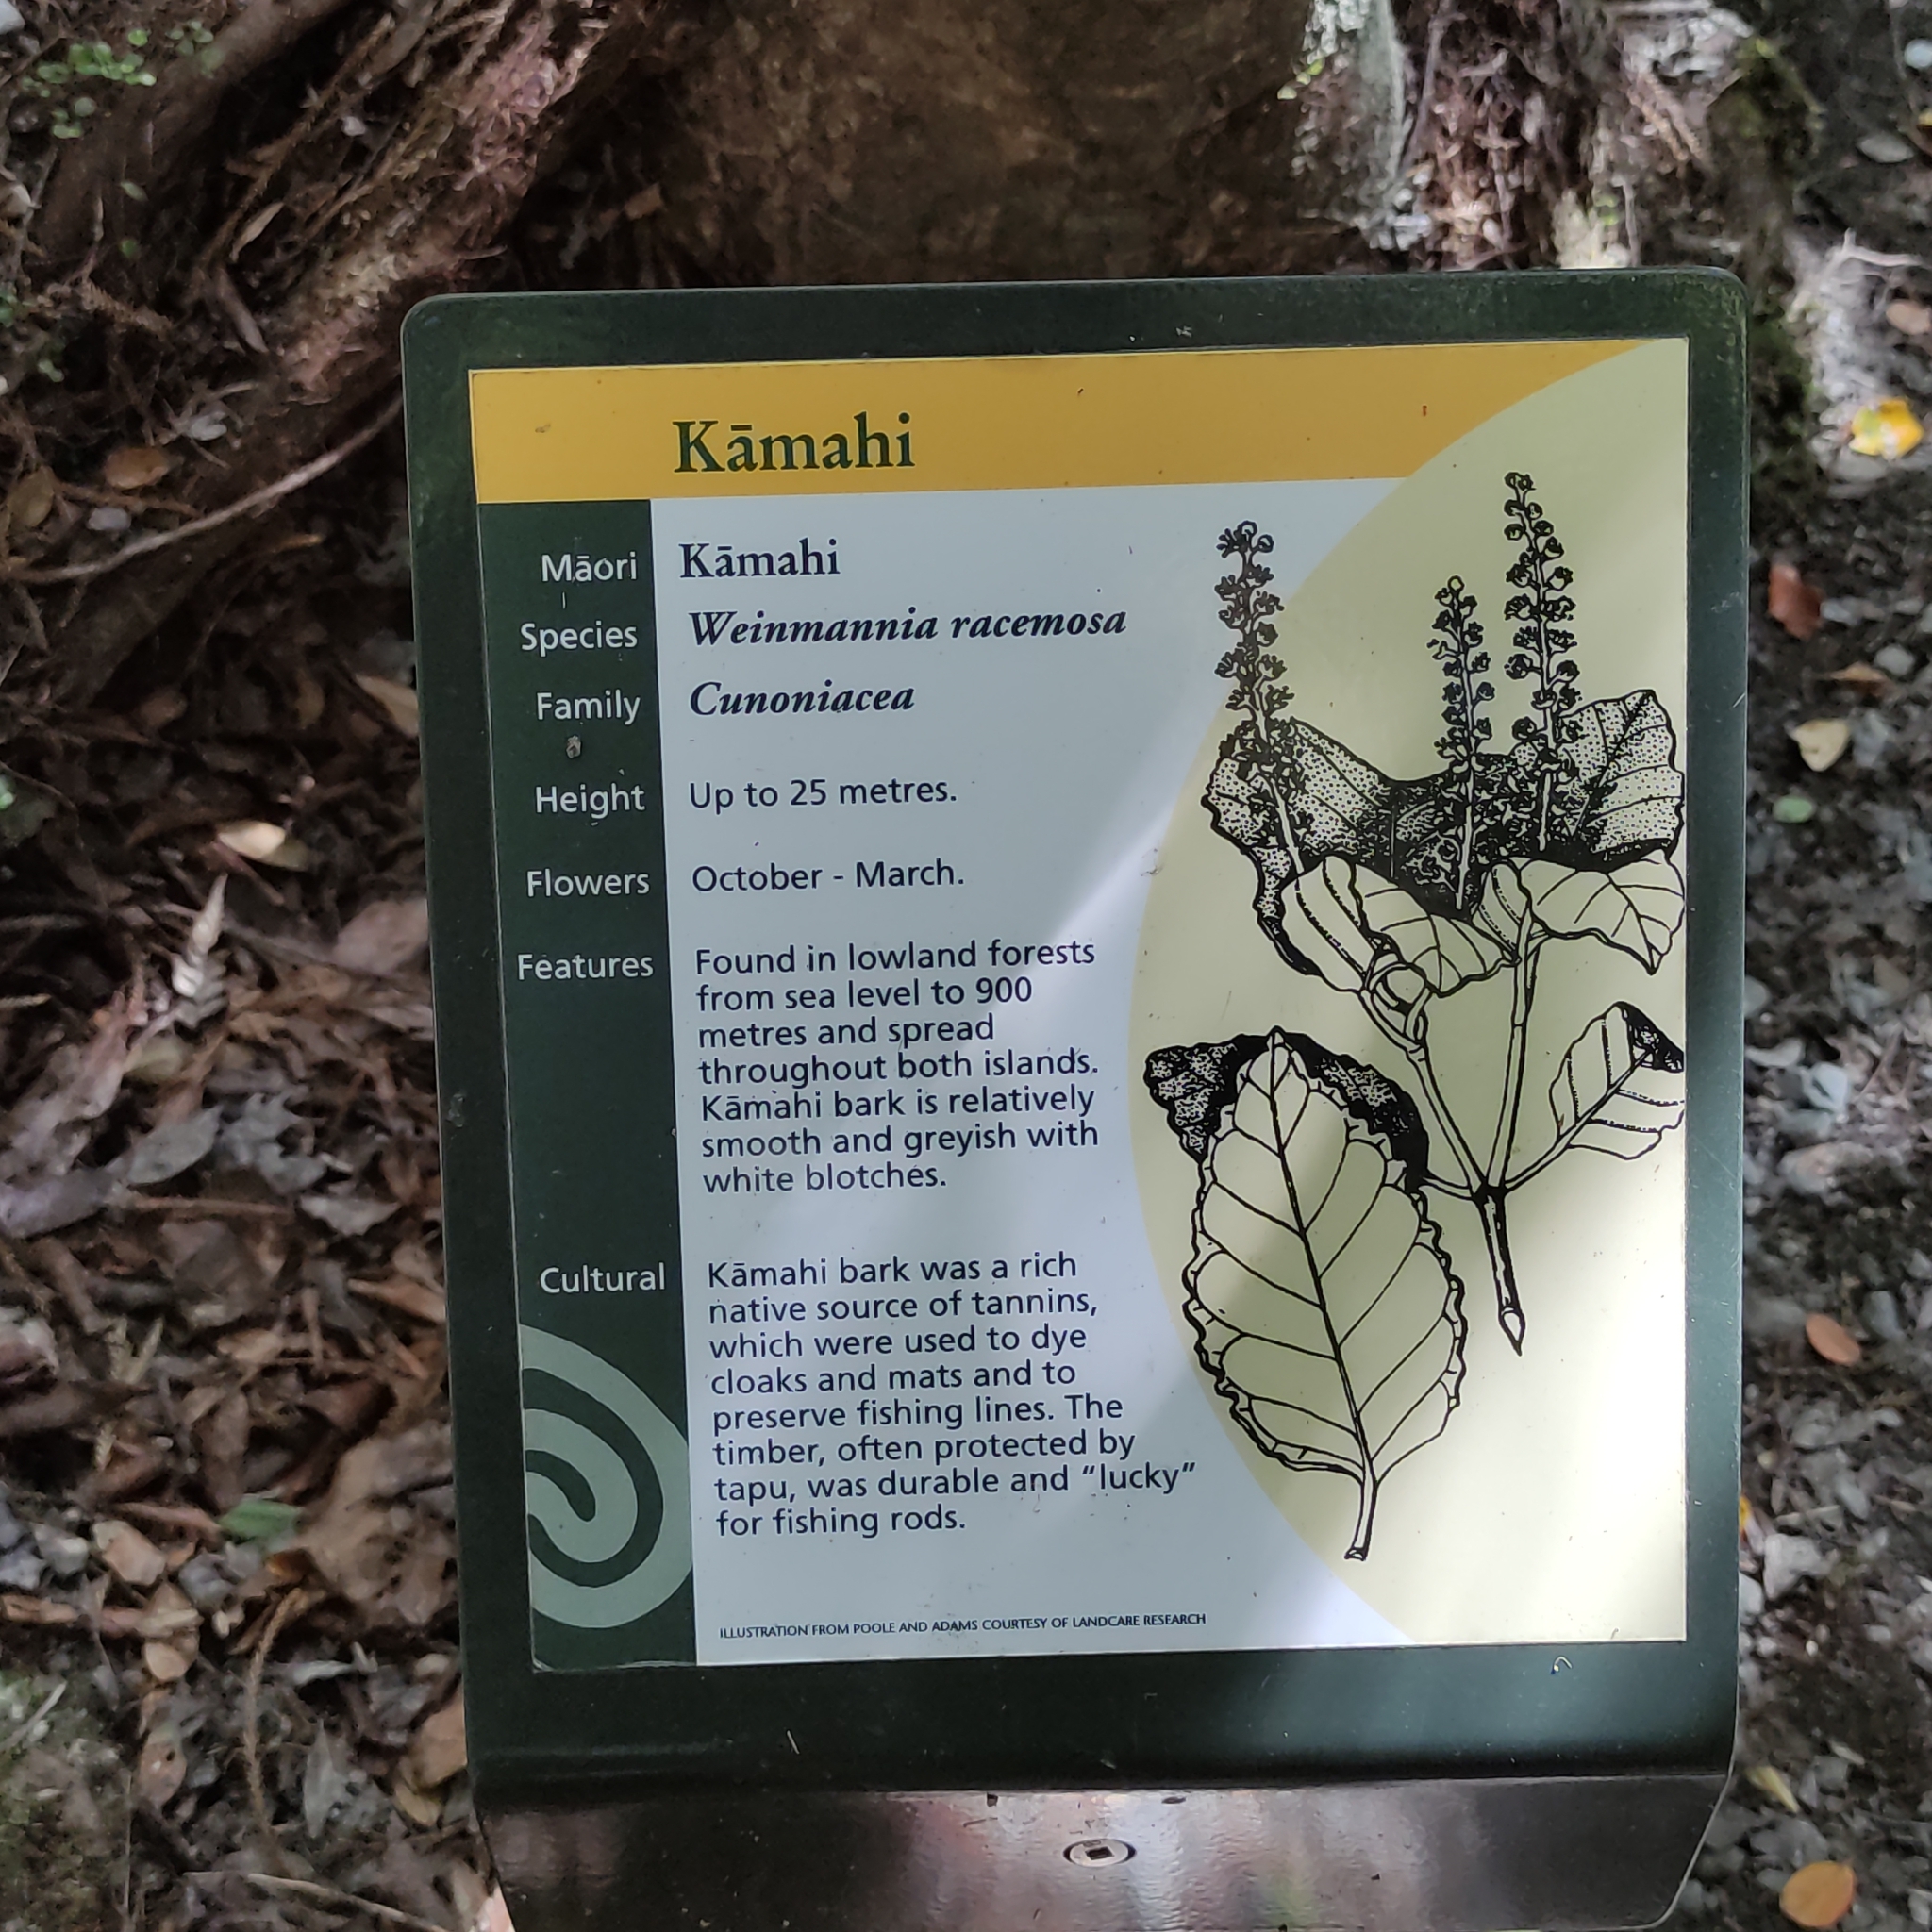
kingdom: Plantae
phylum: Tracheophyta
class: Magnoliopsida
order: Oxalidales
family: Cunoniaceae
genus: Pterophylla
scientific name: Pterophylla racemosa
